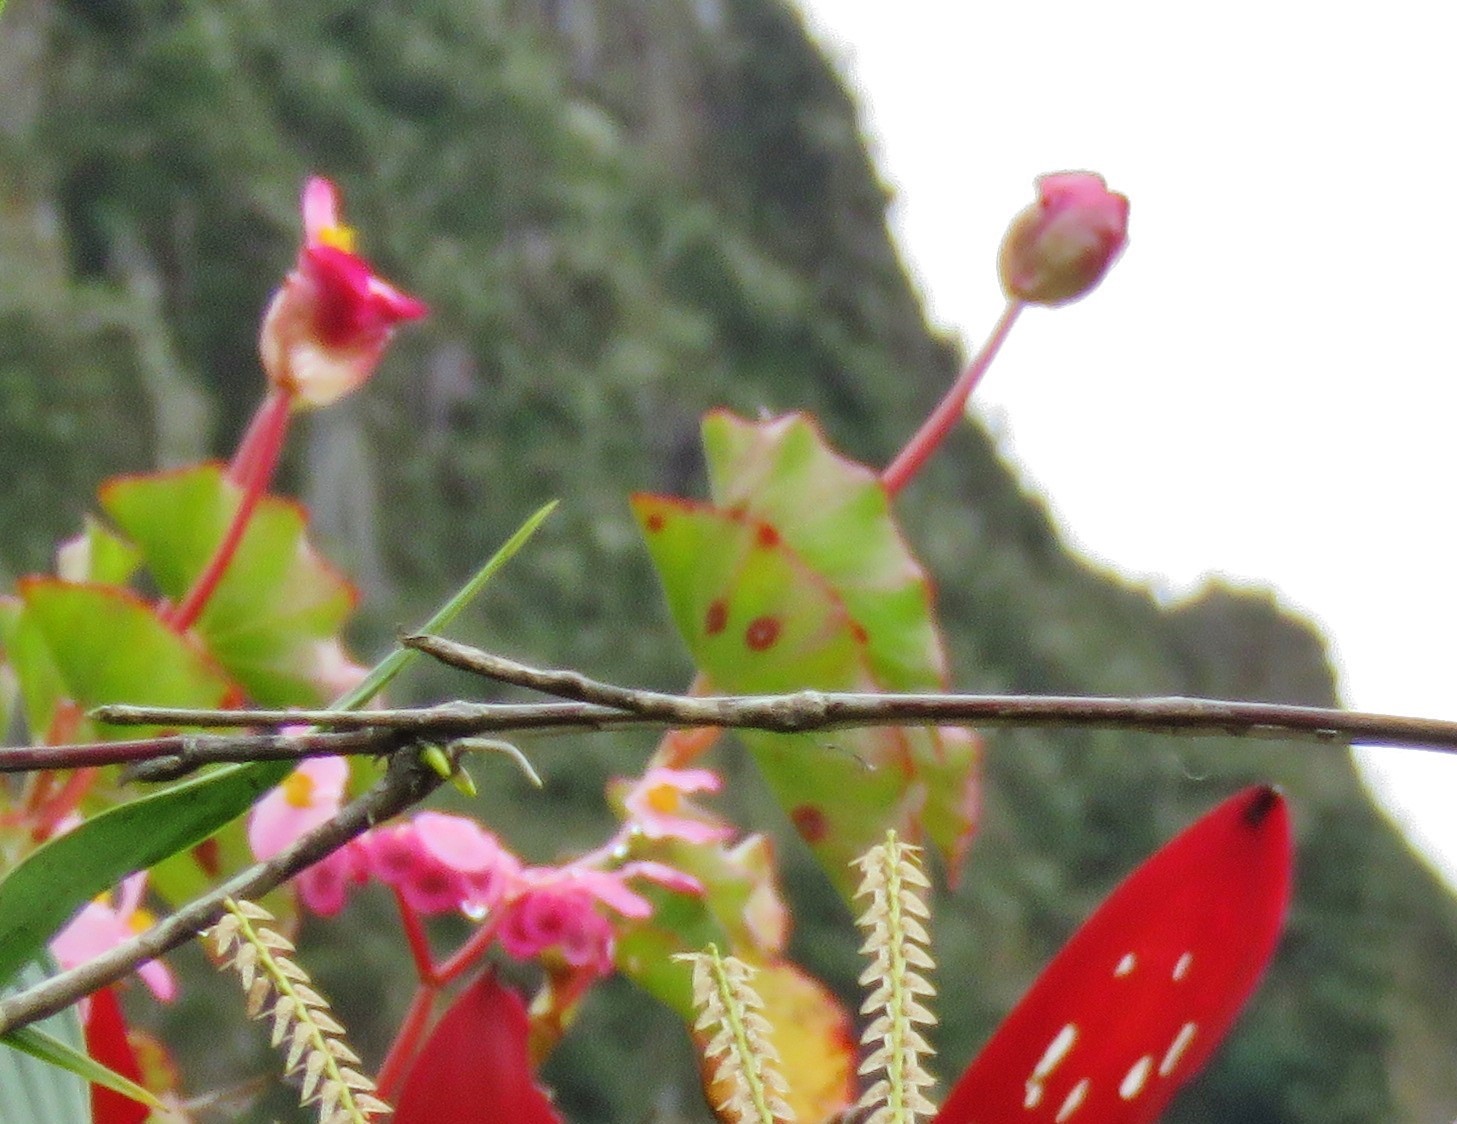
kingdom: Plantae
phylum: Tracheophyta
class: Magnoliopsida
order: Cucurbitales
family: Begoniaceae
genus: Begonia
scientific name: Begonia bracteosa
